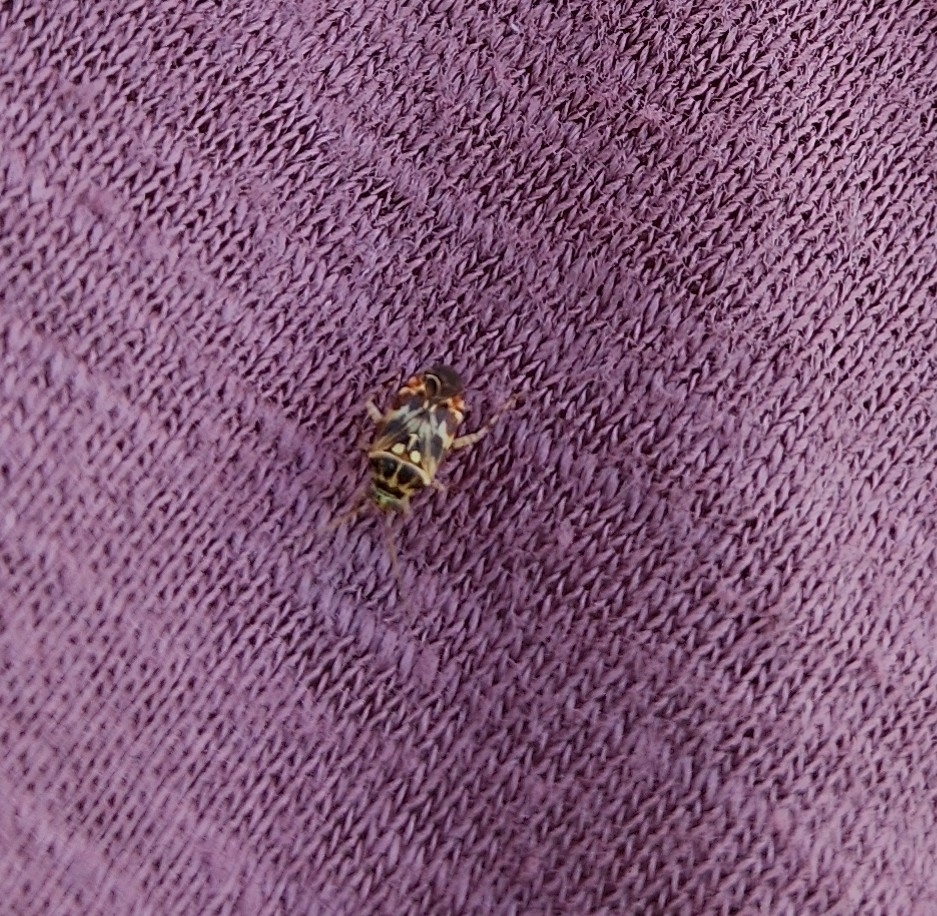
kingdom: Animalia
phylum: Arthropoda
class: Insecta
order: Hemiptera
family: Miridae
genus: Tropidosteptes
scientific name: Tropidosteptes quercicola
